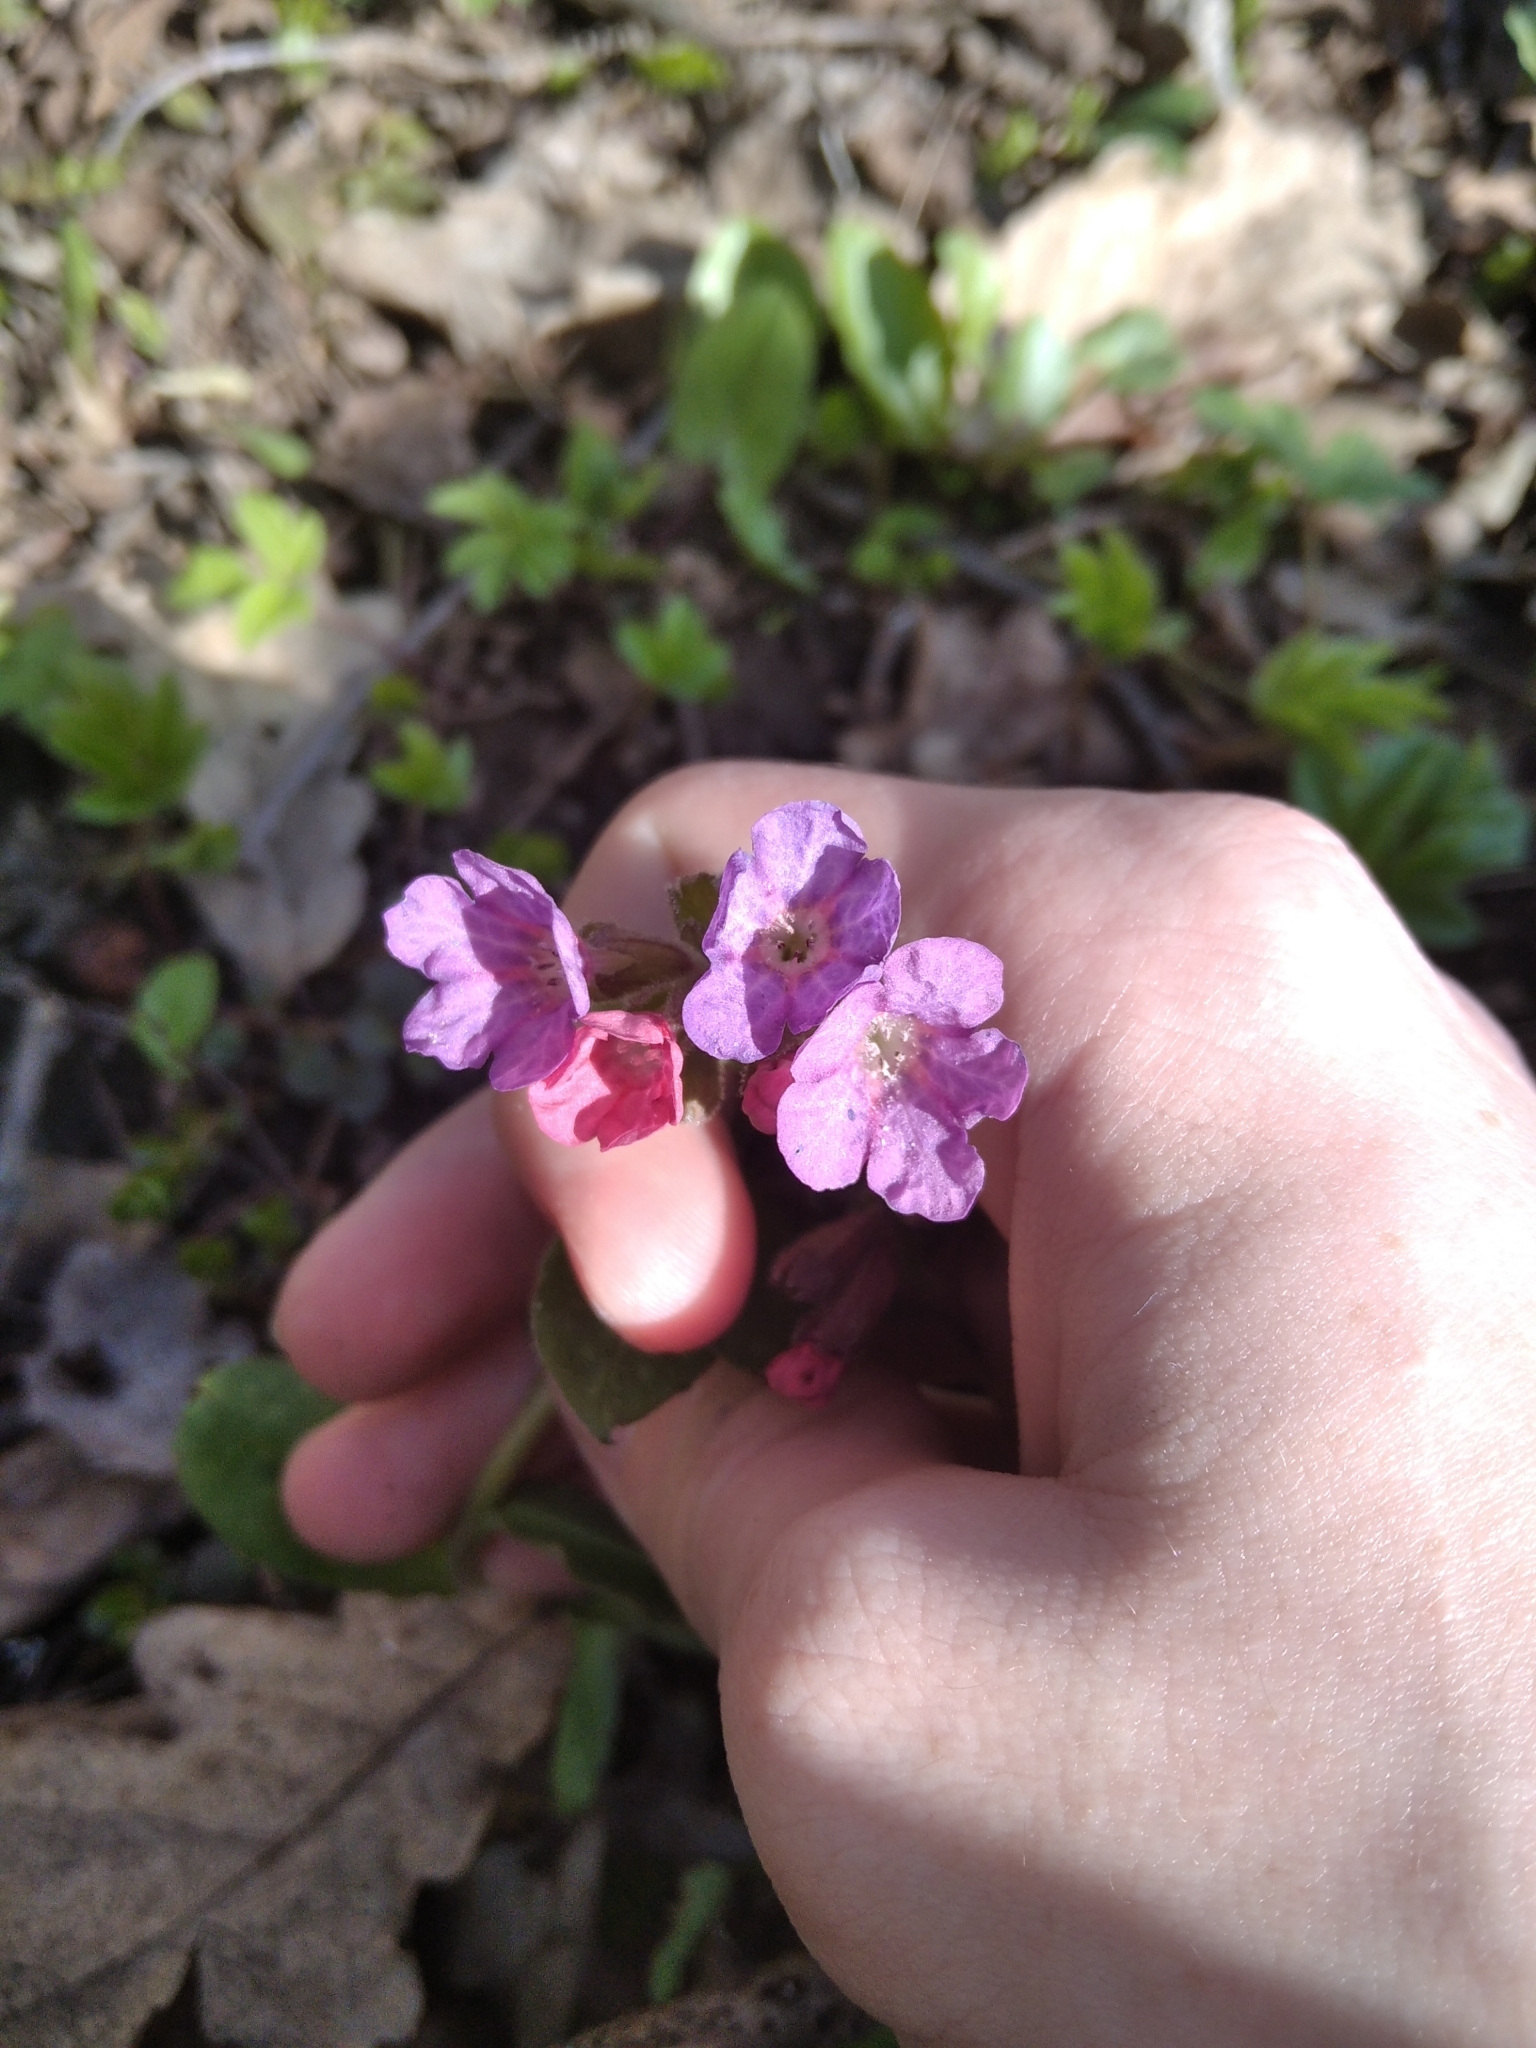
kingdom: Plantae
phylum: Tracheophyta
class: Magnoliopsida
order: Boraginales
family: Boraginaceae
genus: Pulmonaria
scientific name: Pulmonaria obscura
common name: Suffolk lungwort
